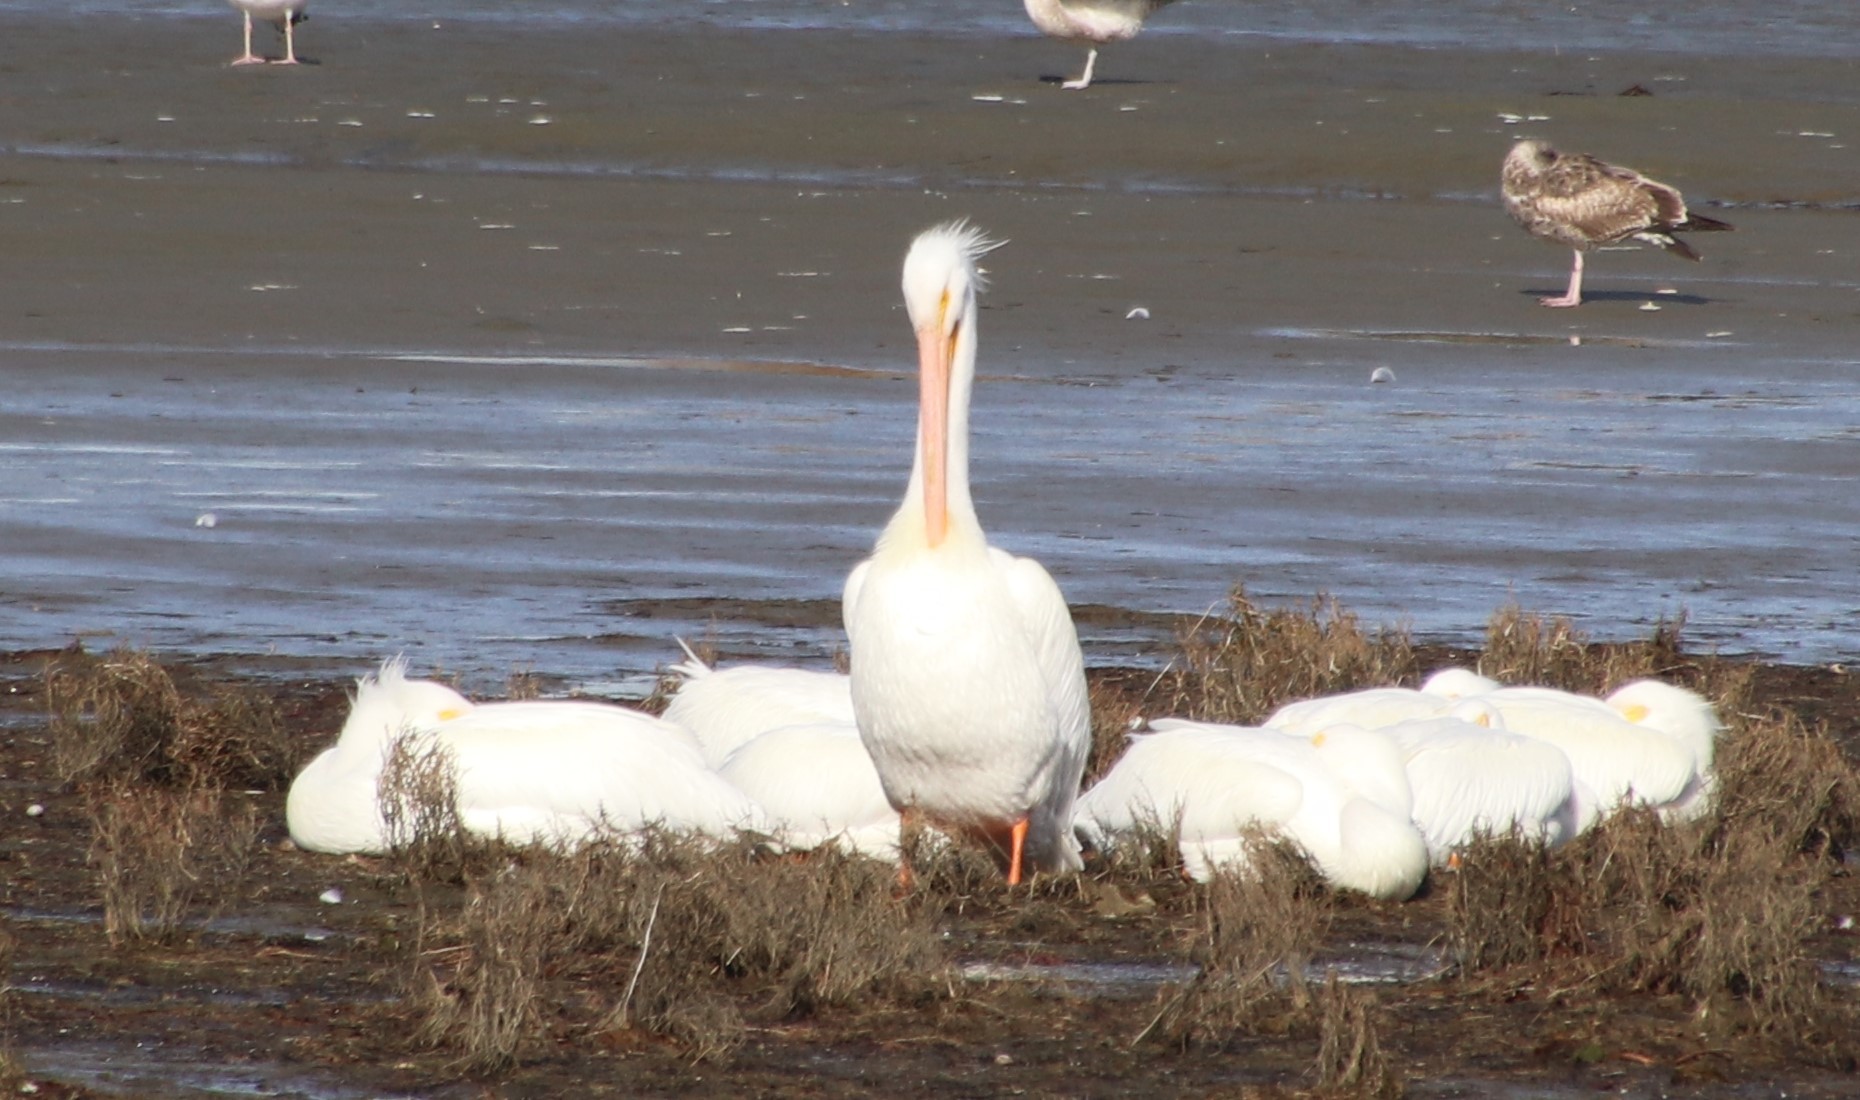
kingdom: Animalia
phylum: Chordata
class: Aves
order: Pelecaniformes
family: Pelecanidae
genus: Pelecanus
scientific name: Pelecanus erythrorhynchos
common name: American white pelican
